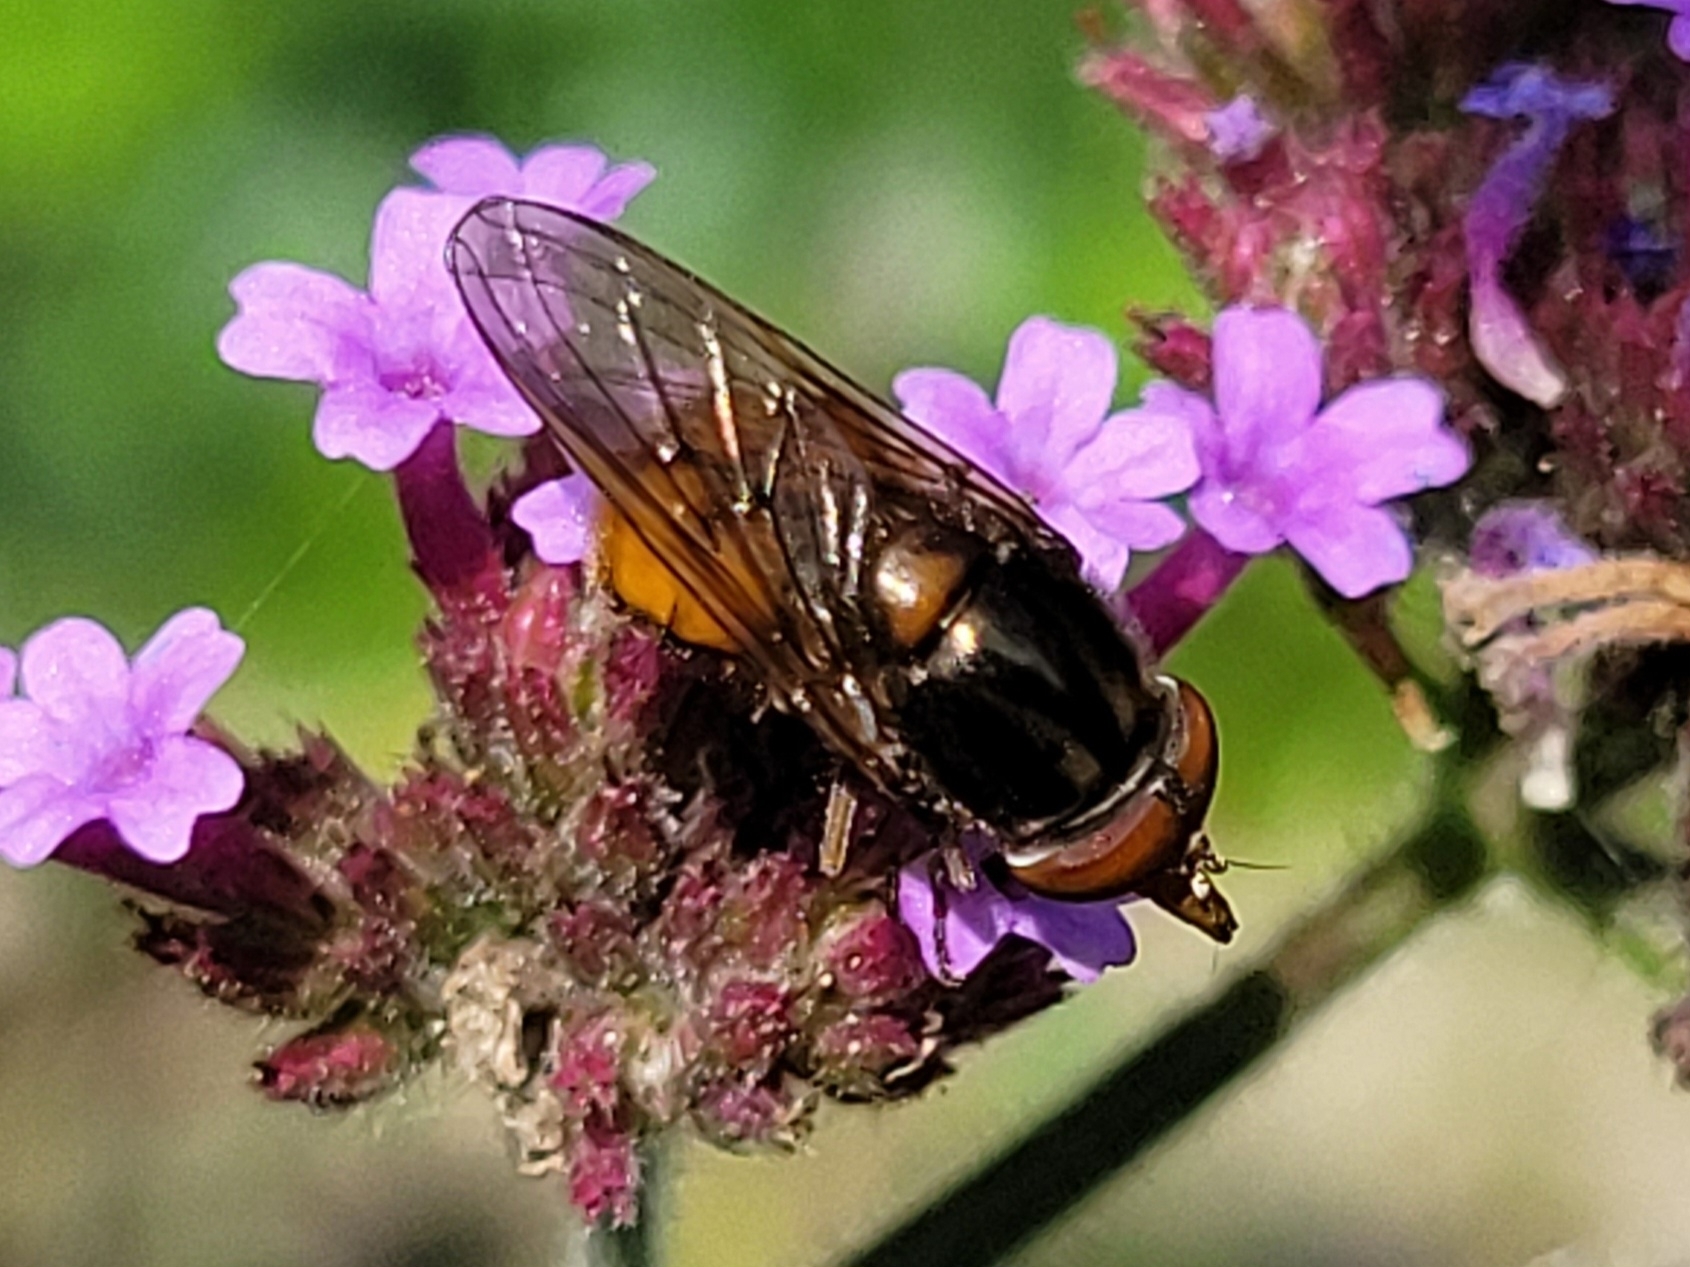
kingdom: Animalia
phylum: Arthropoda
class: Insecta
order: Diptera
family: Syrphidae
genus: Rhingia
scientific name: Rhingia campestris
